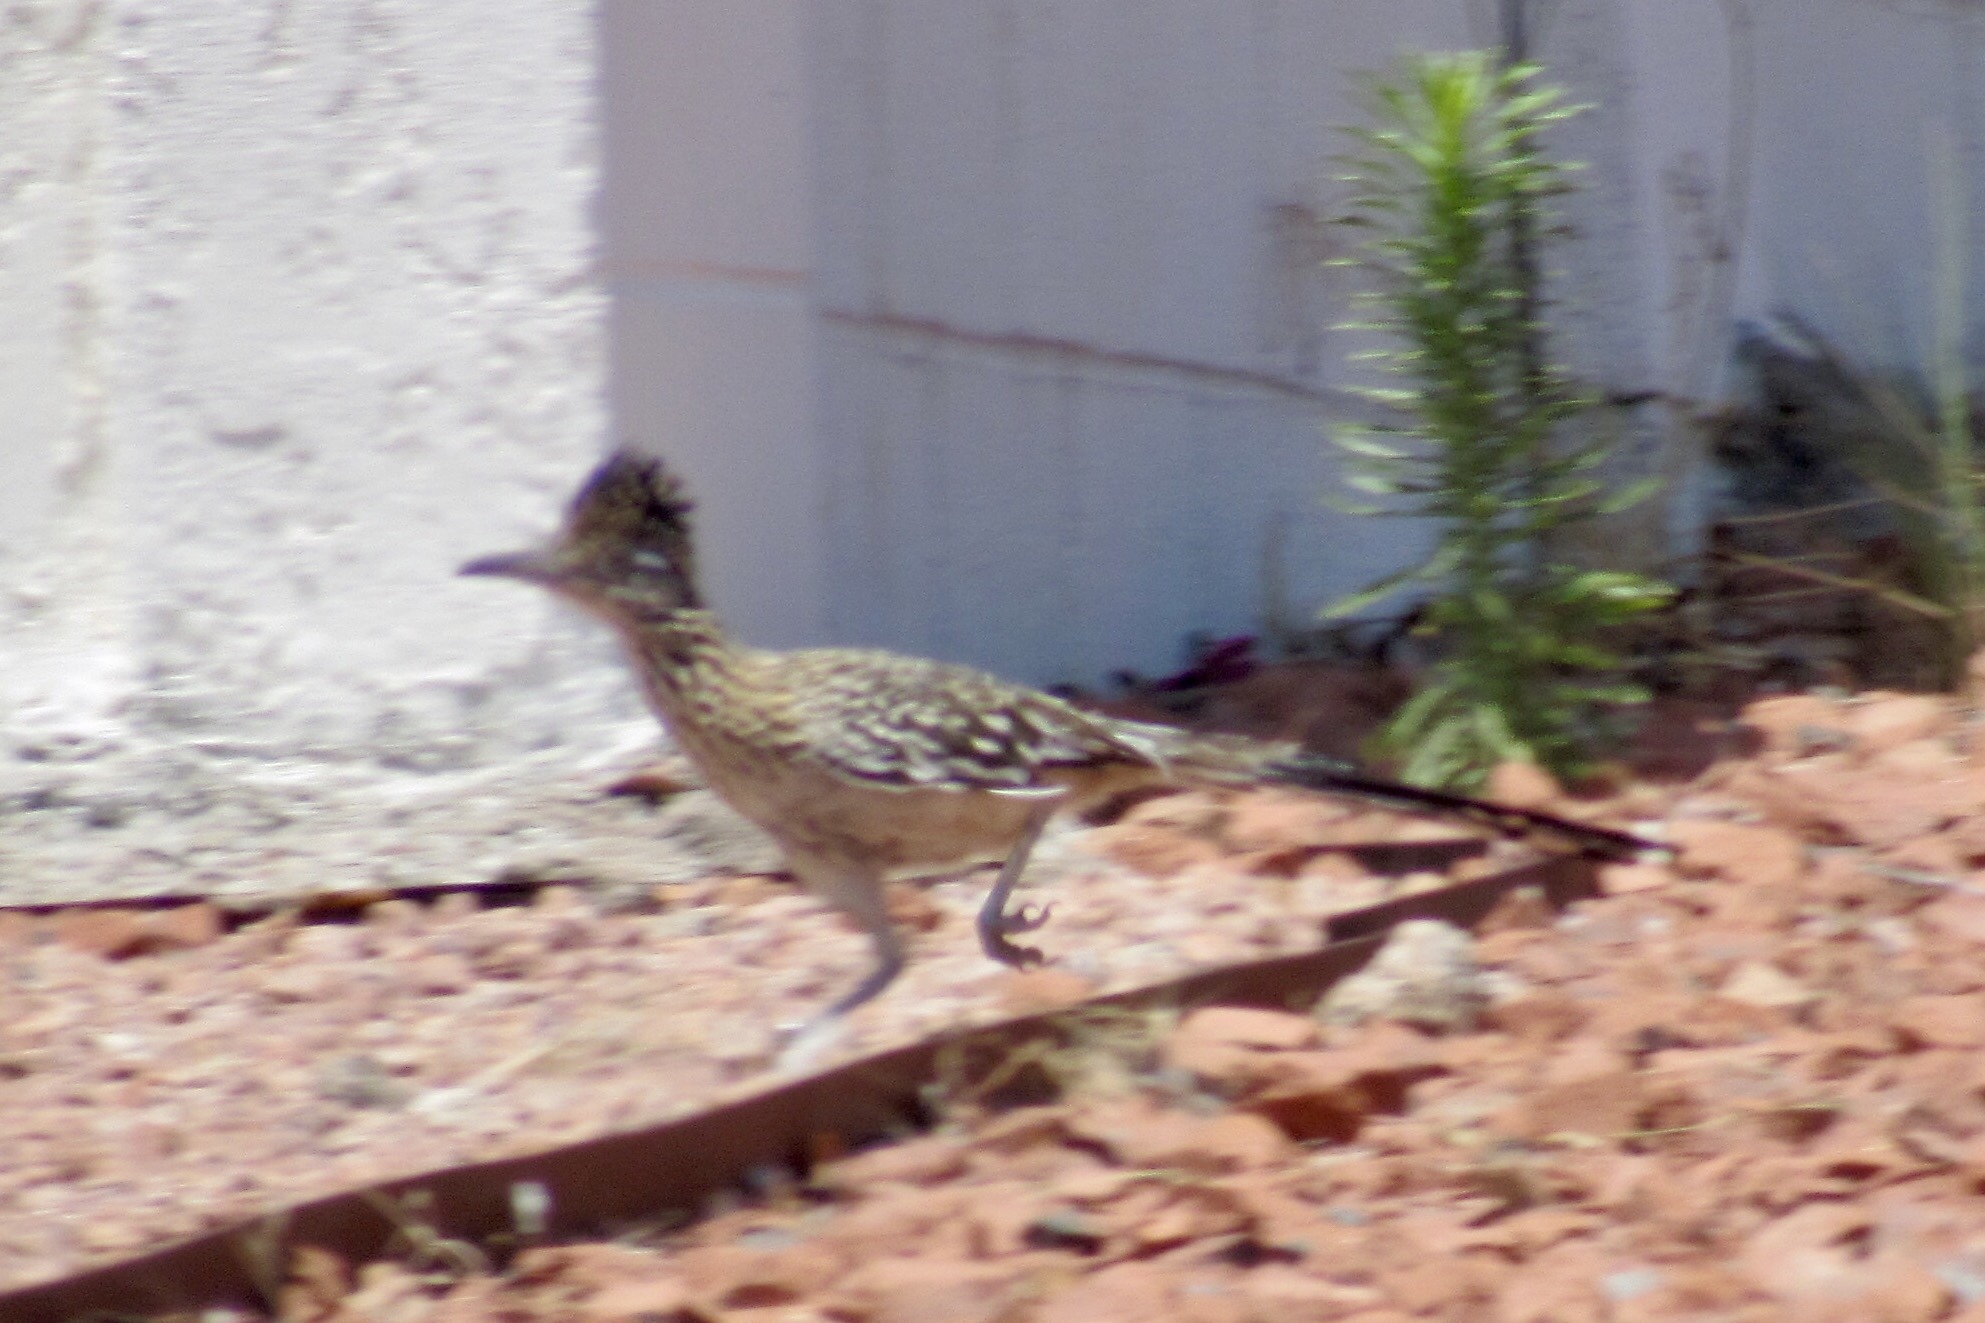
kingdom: Animalia
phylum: Chordata
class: Aves
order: Cuculiformes
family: Cuculidae
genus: Geococcyx
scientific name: Geococcyx californianus
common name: Greater roadrunner
